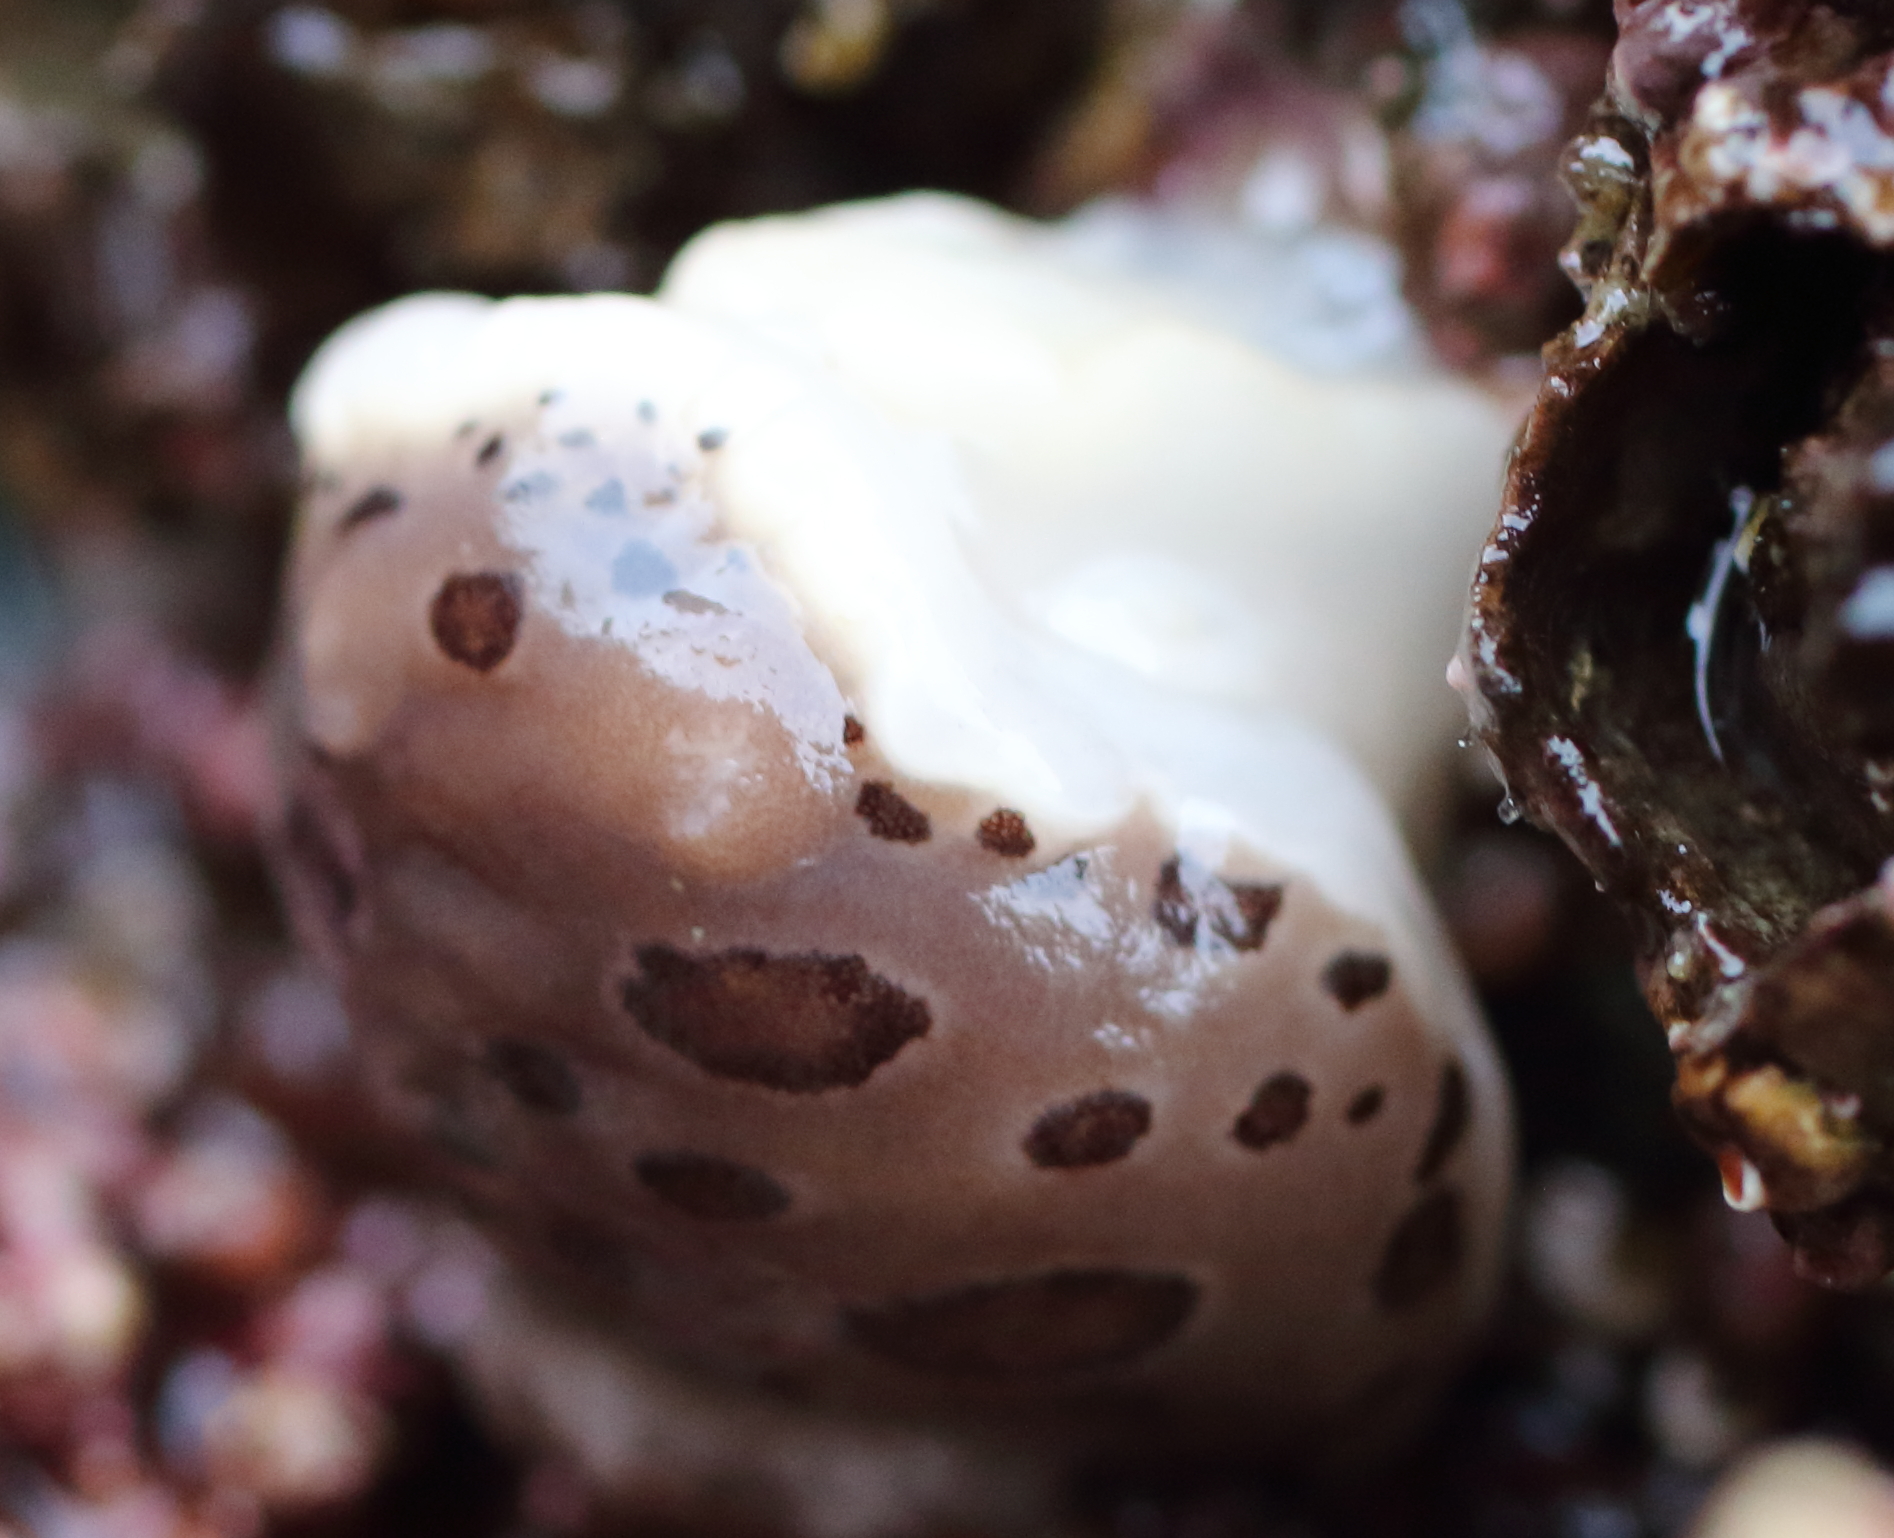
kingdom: Animalia
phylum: Mollusca
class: Gastropoda
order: Nudibranchia
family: Discodorididae
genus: Diaulula
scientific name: Diaulula odonoghuei
